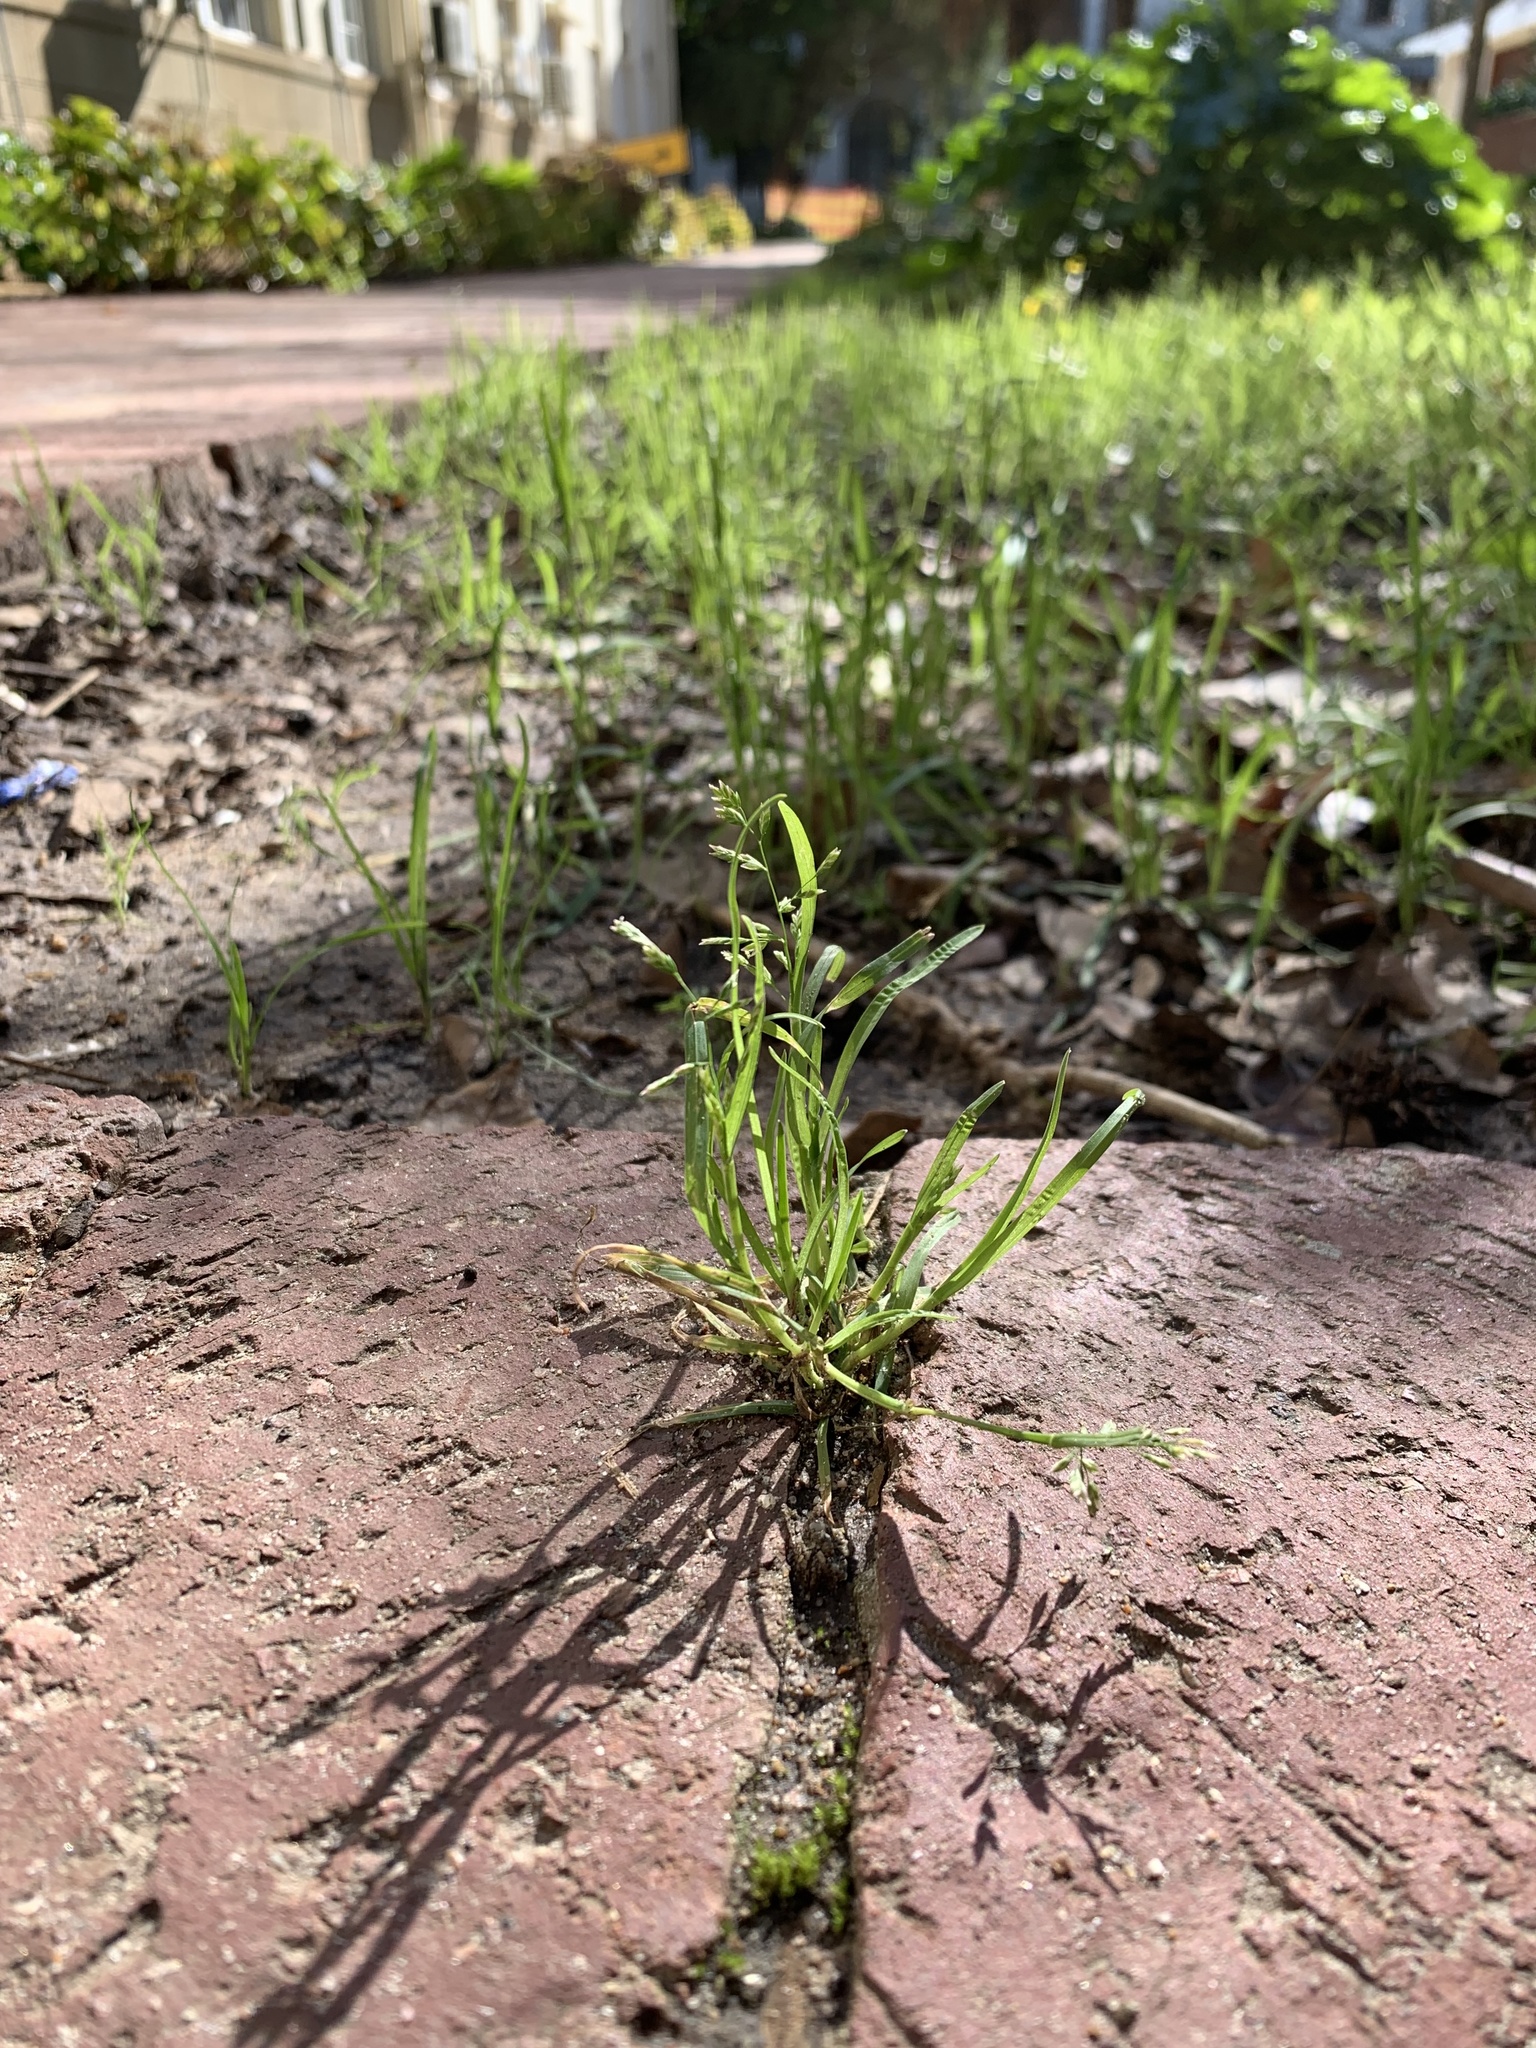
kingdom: Plantae
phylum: Tracheophyta
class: Liliopsida
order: Poales
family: Poaceae
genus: Poa
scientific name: Poa annua
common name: Annual bluegrass
